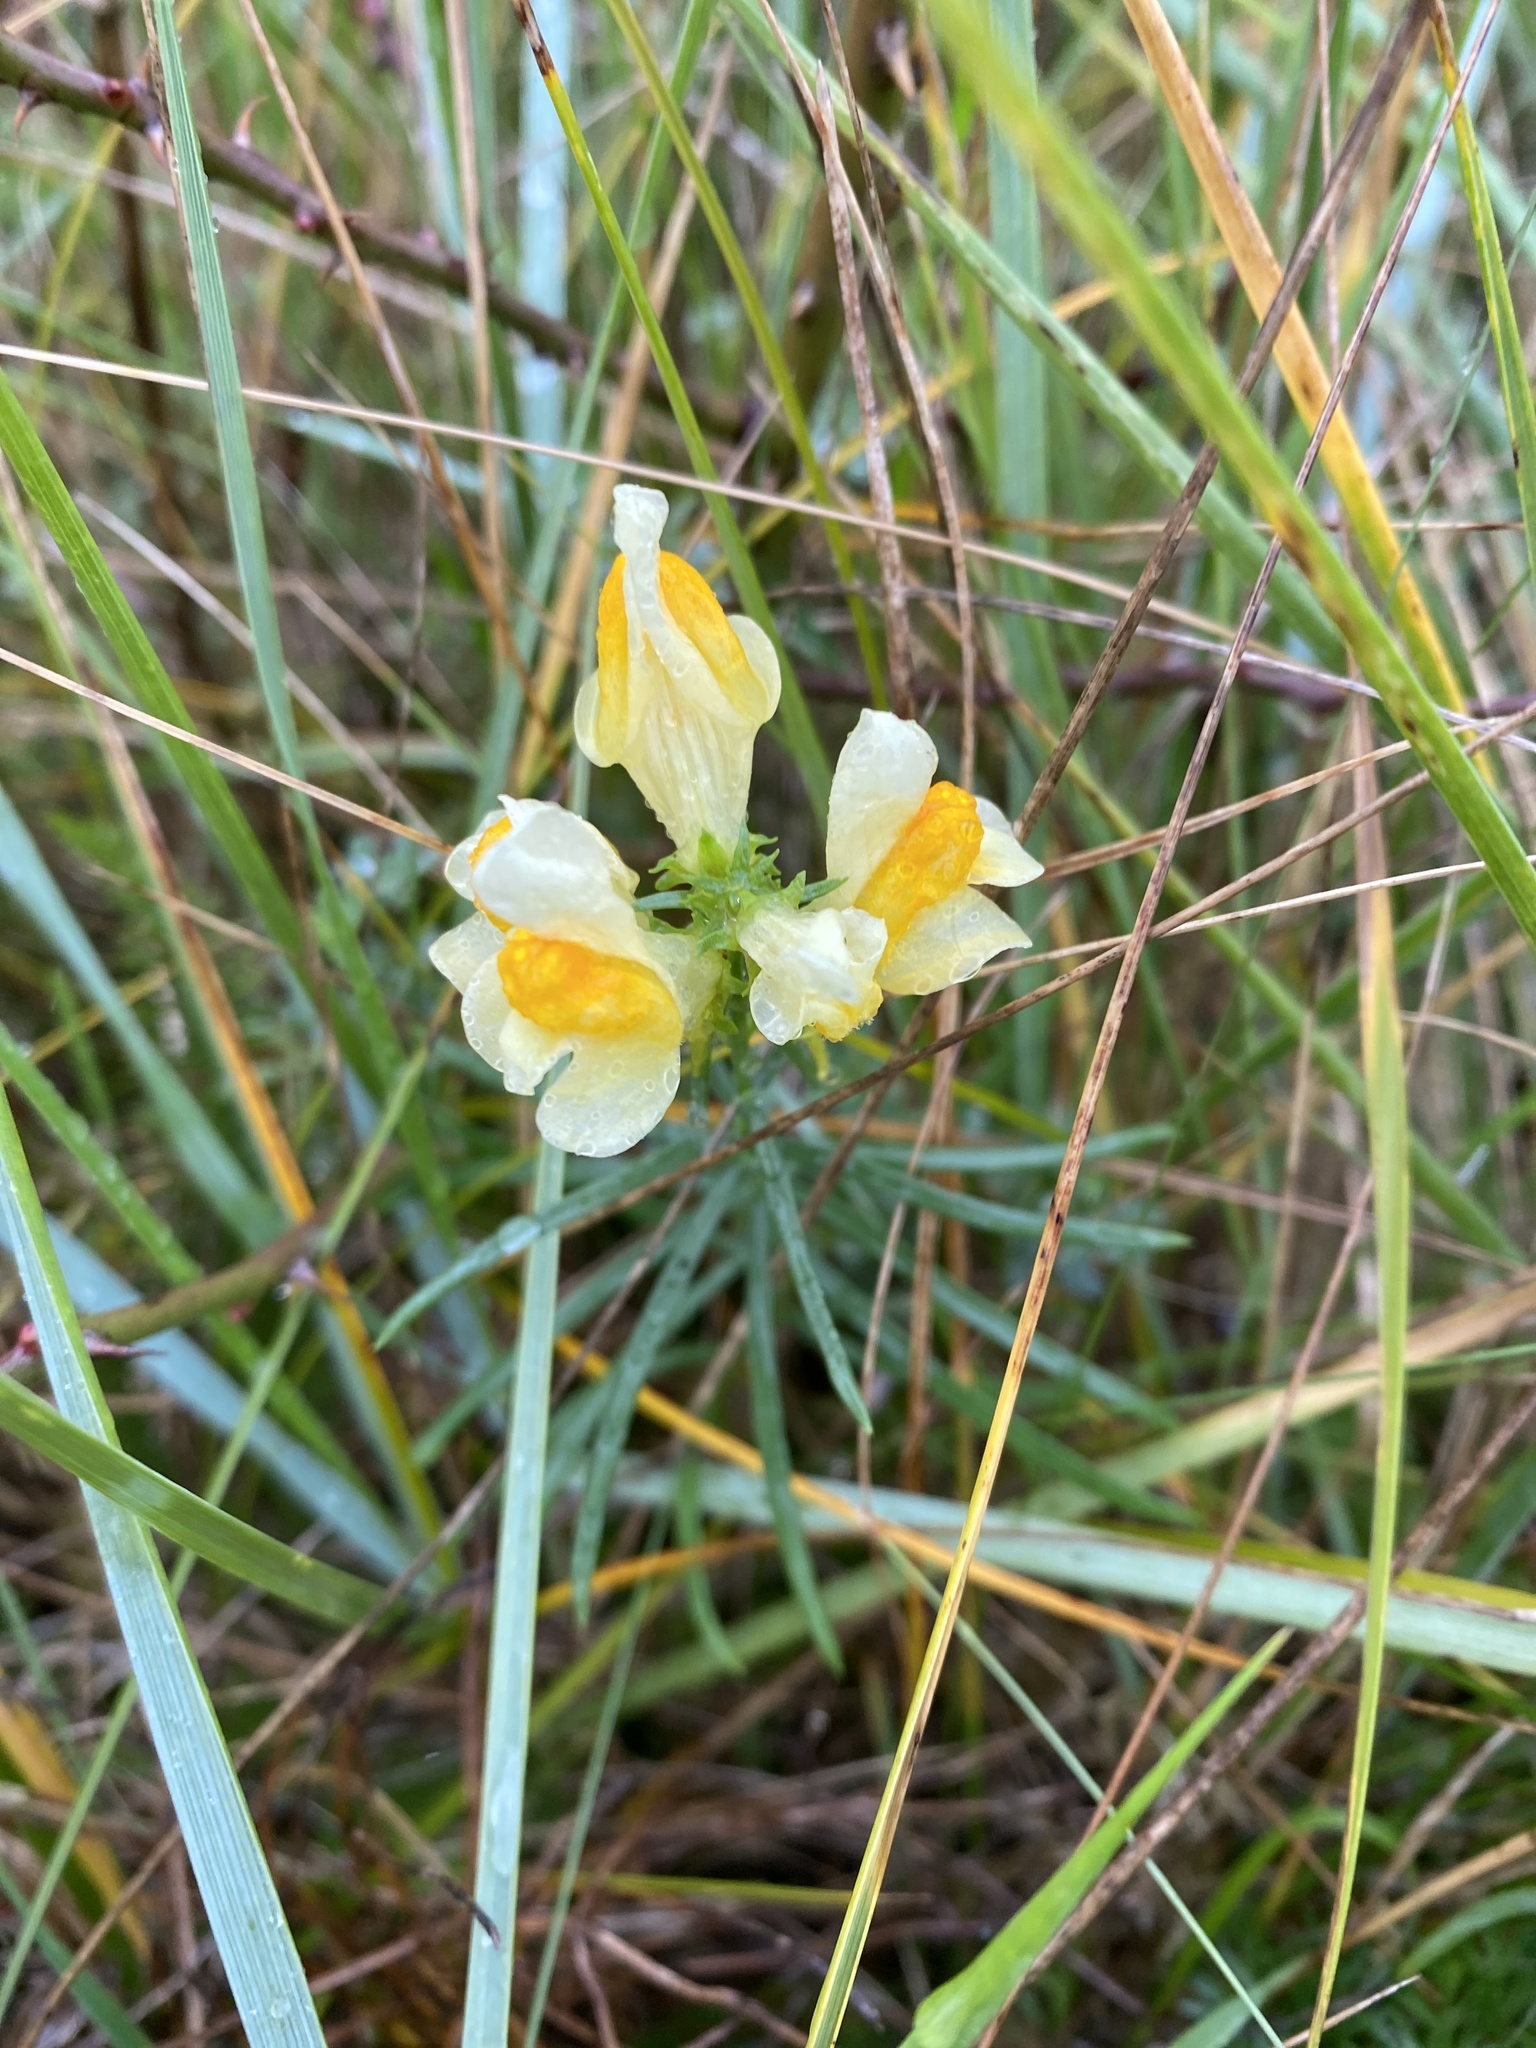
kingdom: Plantae
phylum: Tracheophyta
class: Magnoliopsida
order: Lamiales
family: Plantaginaceae
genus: Linaria
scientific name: Linaria vulgaris
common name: Butter and eggs
